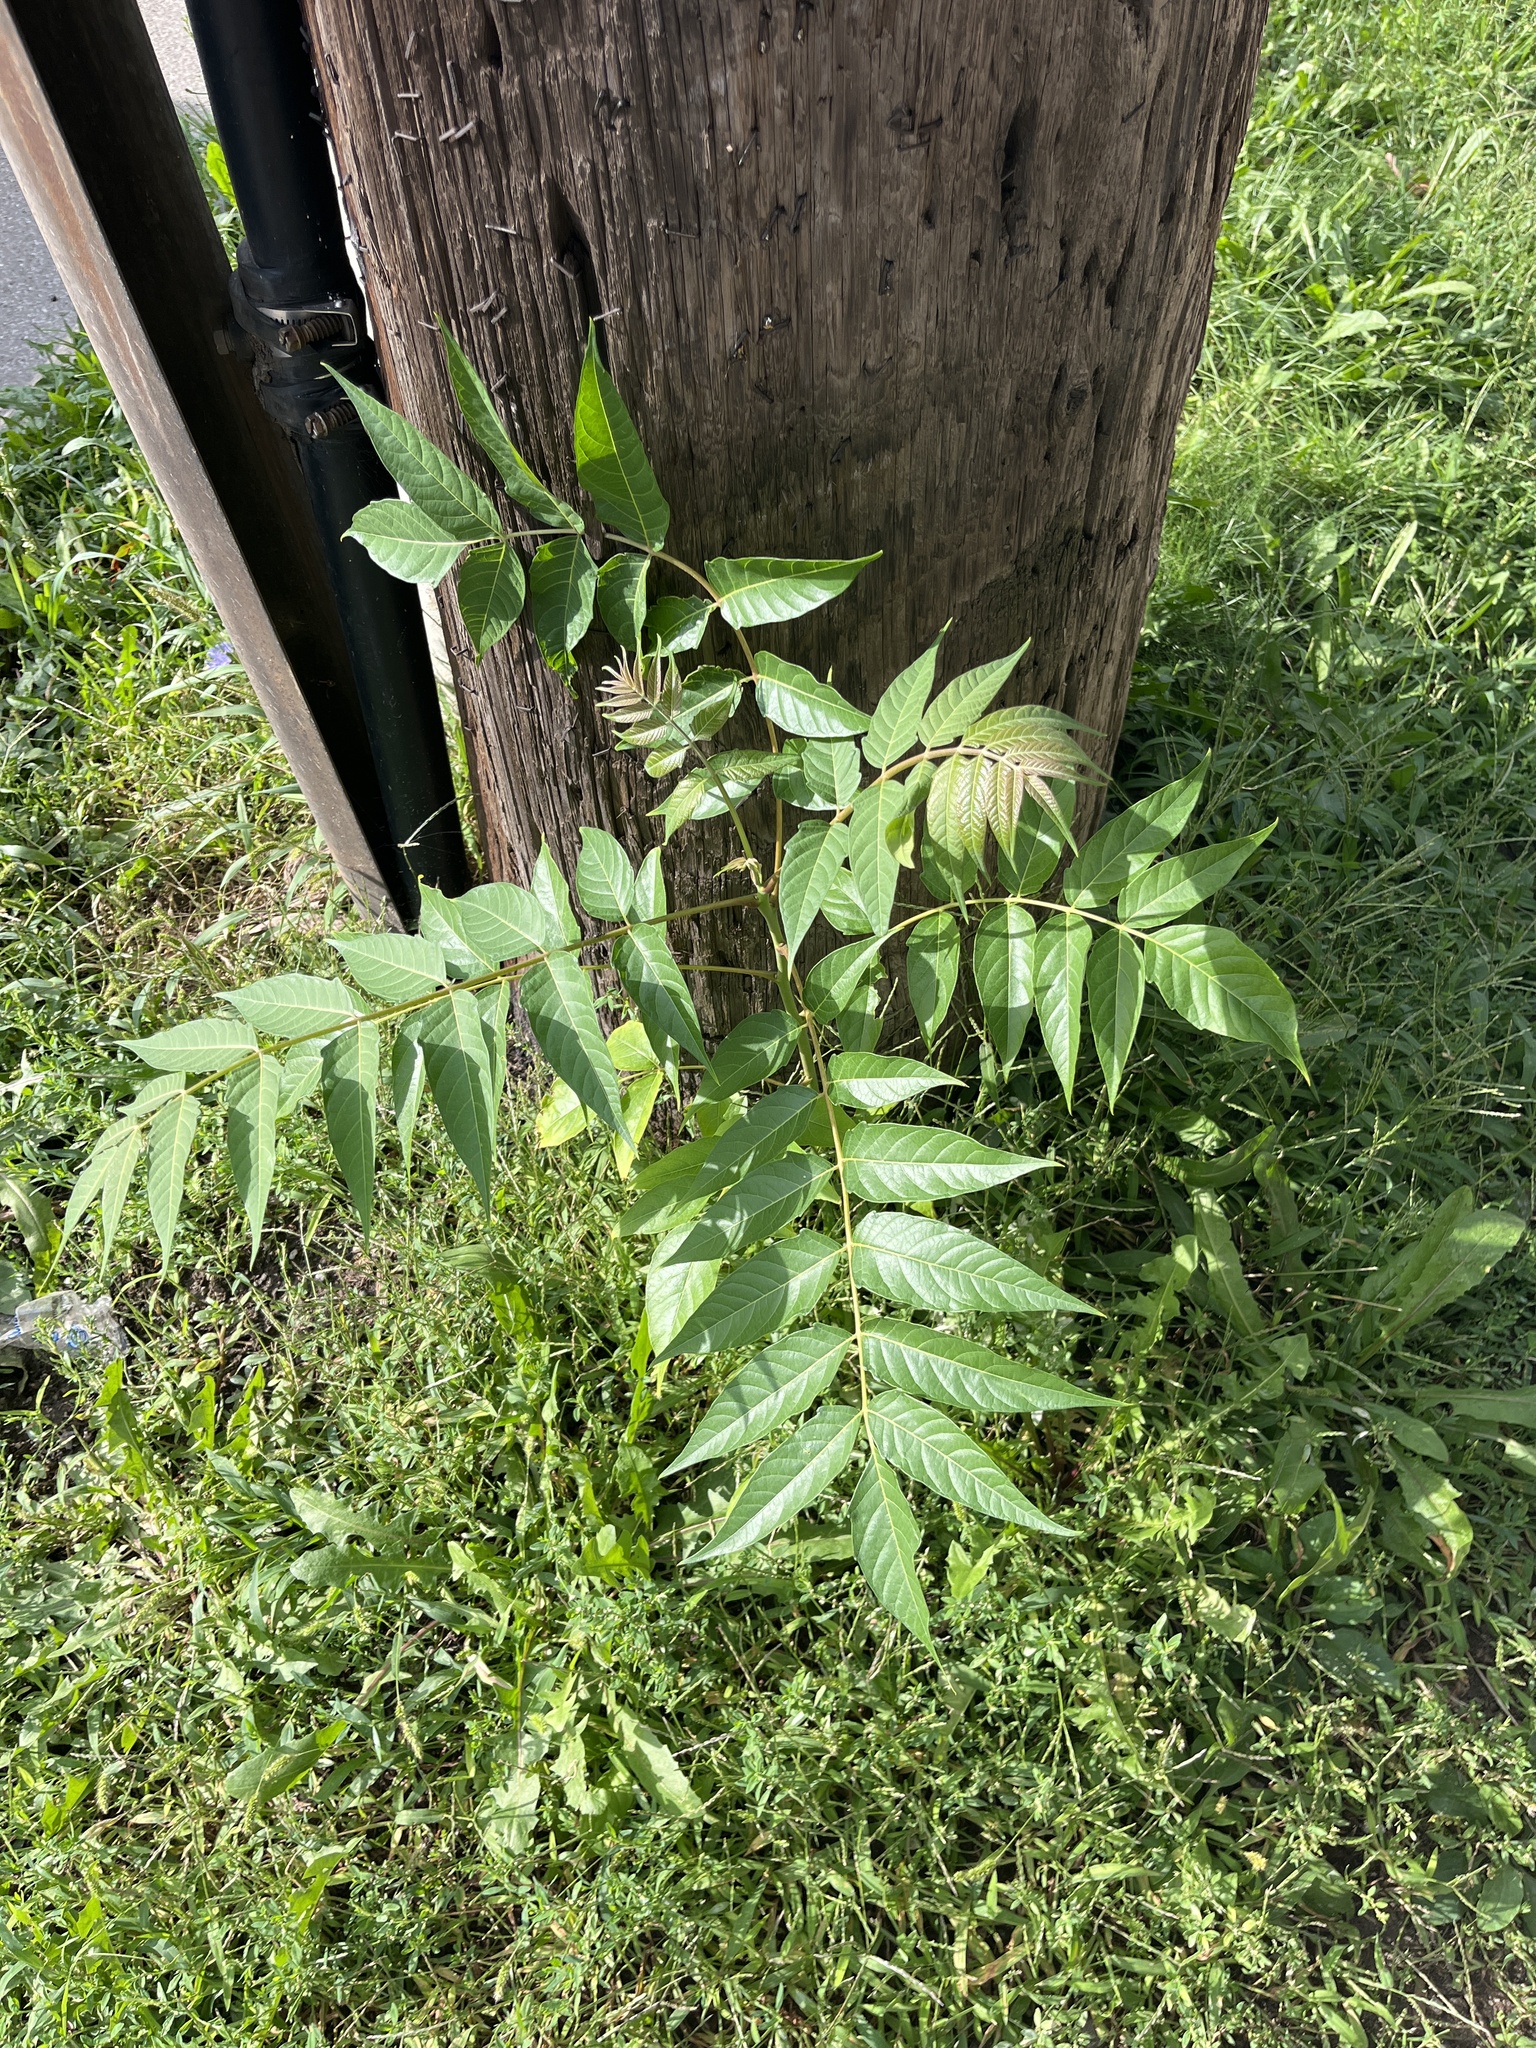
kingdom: Plantae
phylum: Tracheophyta
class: Magnoliopsida
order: Sapindales
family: Simaroubaceae
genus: Ailanthus
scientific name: Ailanthus altissima
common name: Tree-of-heaven
